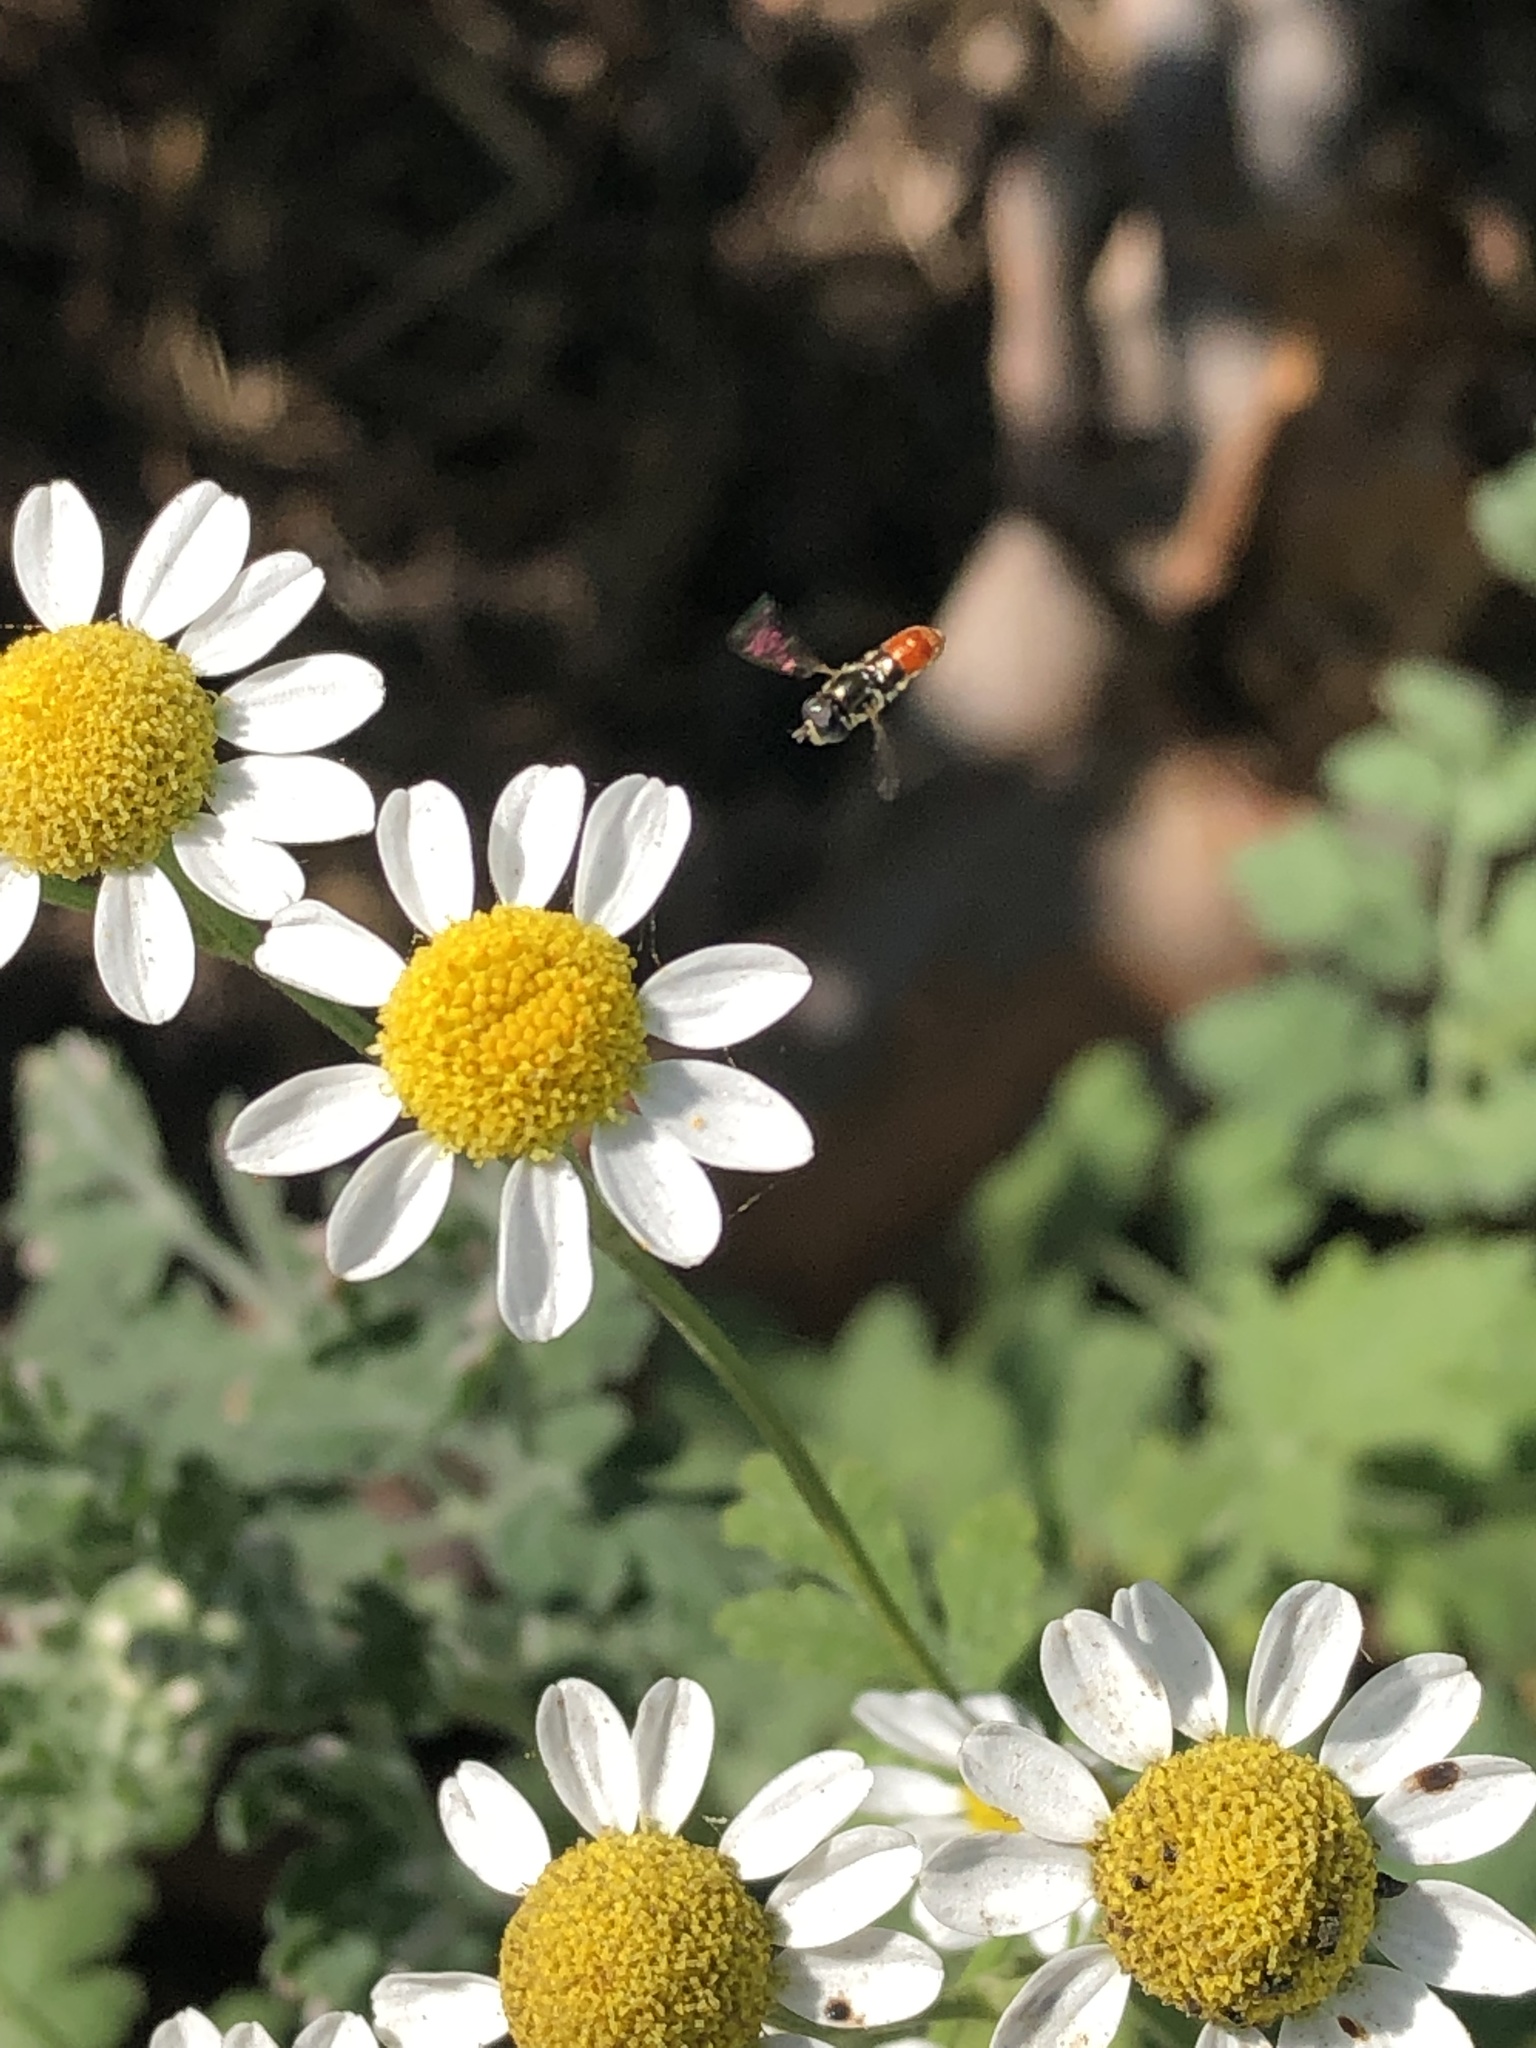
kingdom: Animalia
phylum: Arthropoda
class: Insecta
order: Diptera
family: Syrphidae
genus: Paragus
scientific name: Paragus haemorrhous
